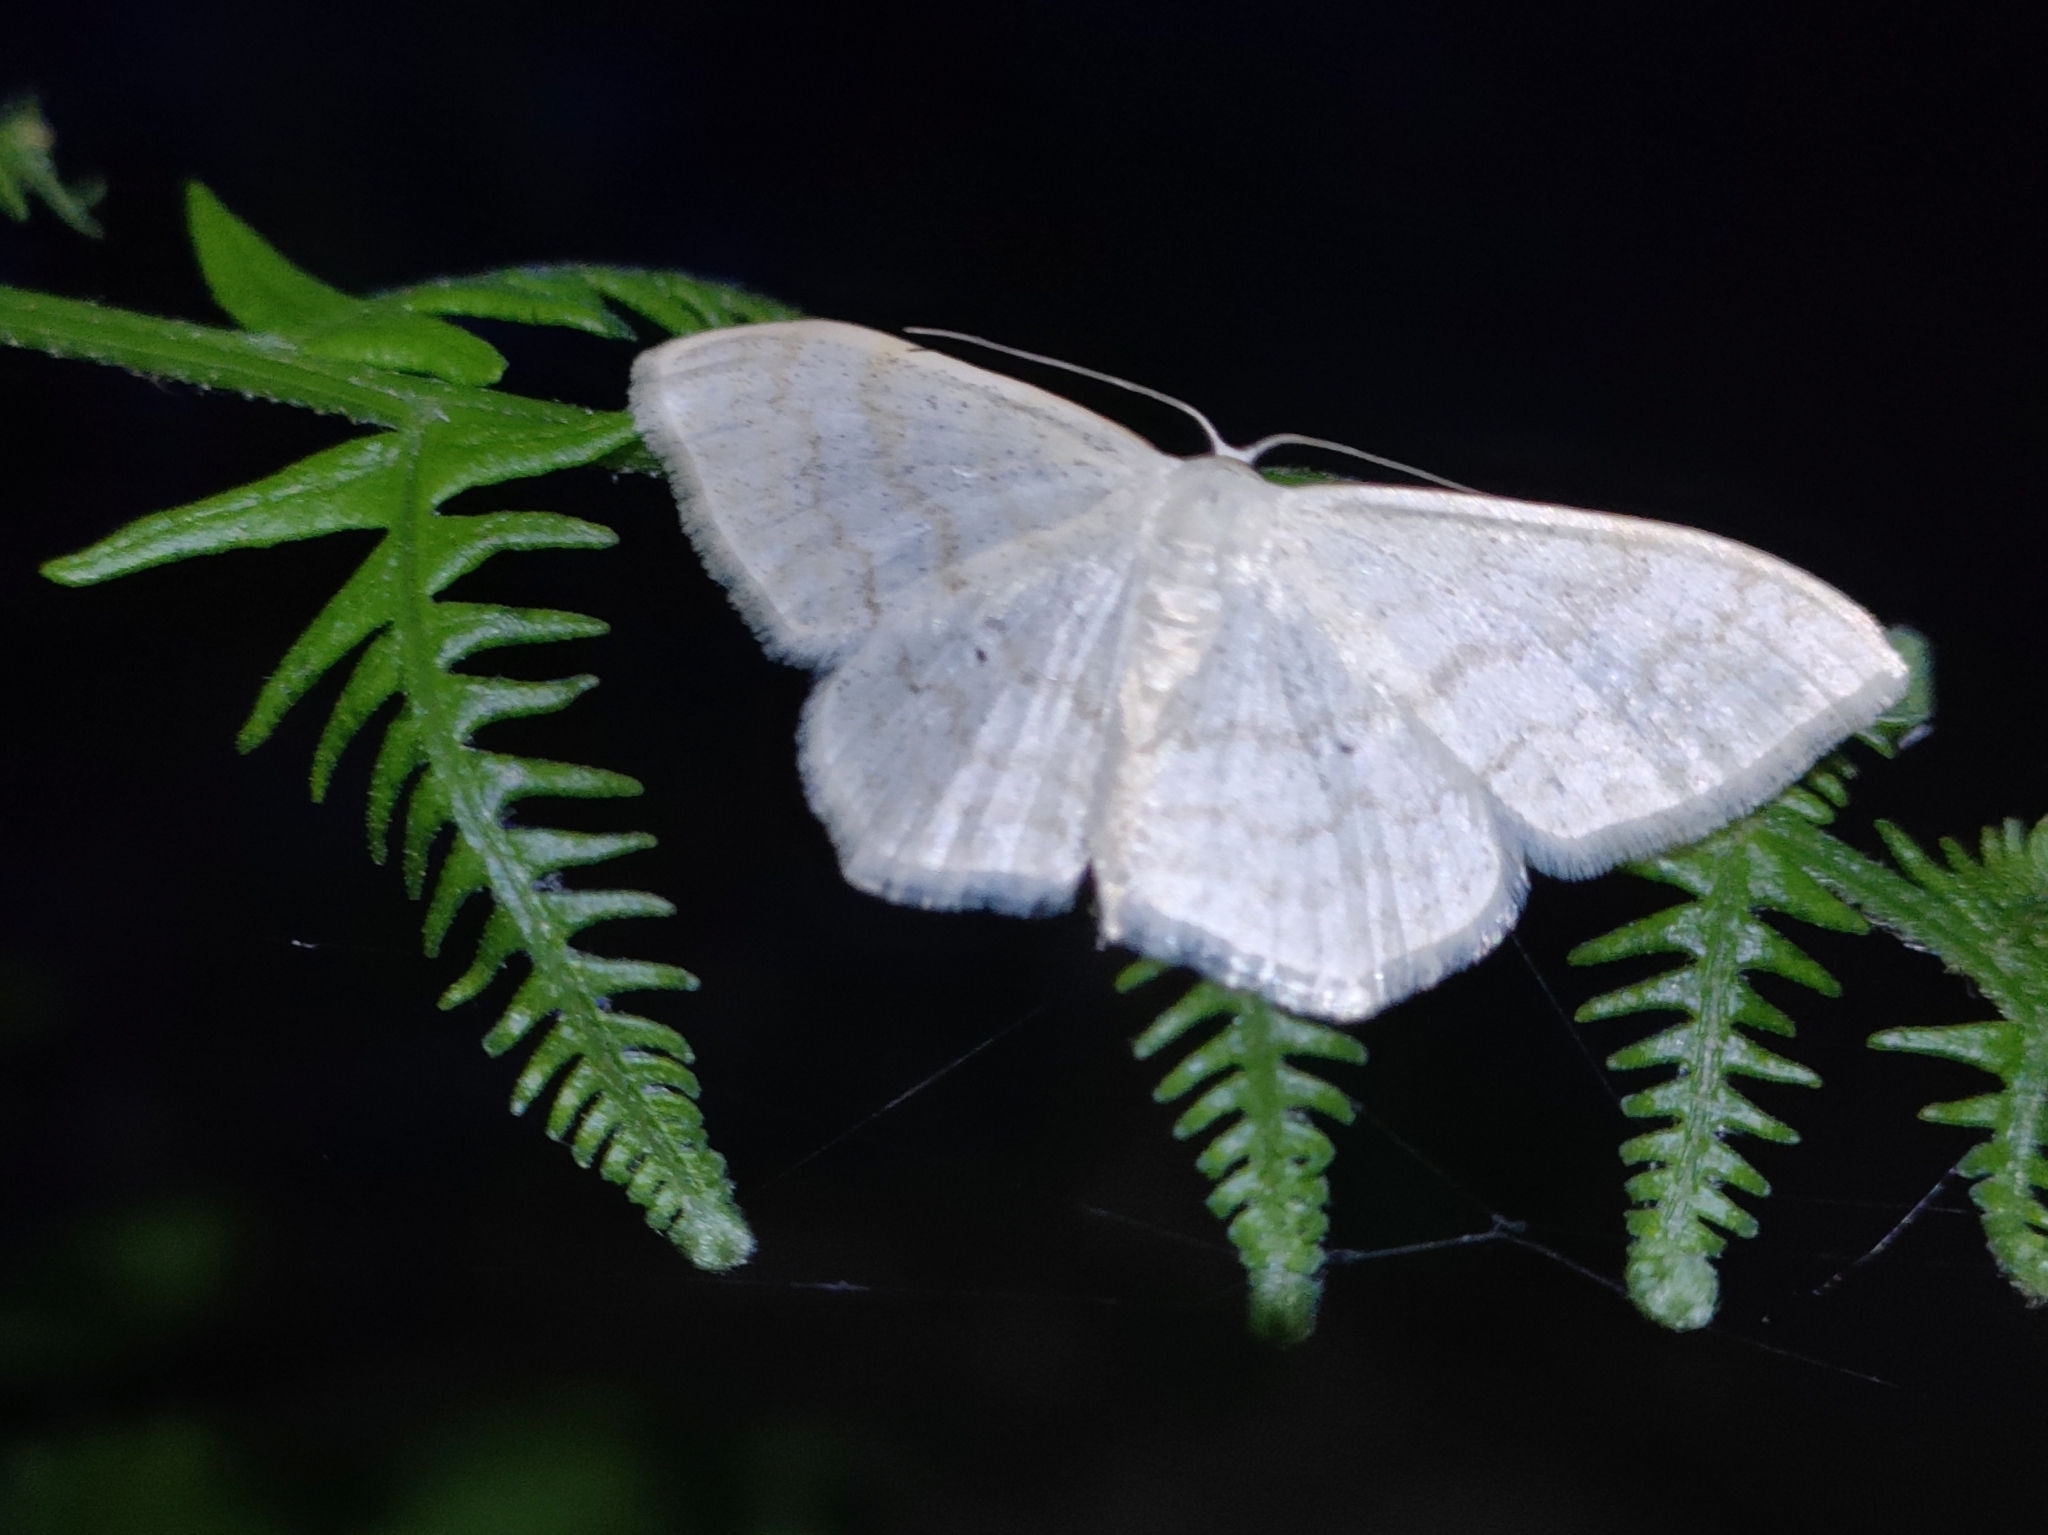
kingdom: Animalia
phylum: Arthropoda
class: Insecta
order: Lepidoptera
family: Geometridae
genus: Scopula
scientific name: Scopula floslactata
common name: Cream wave
